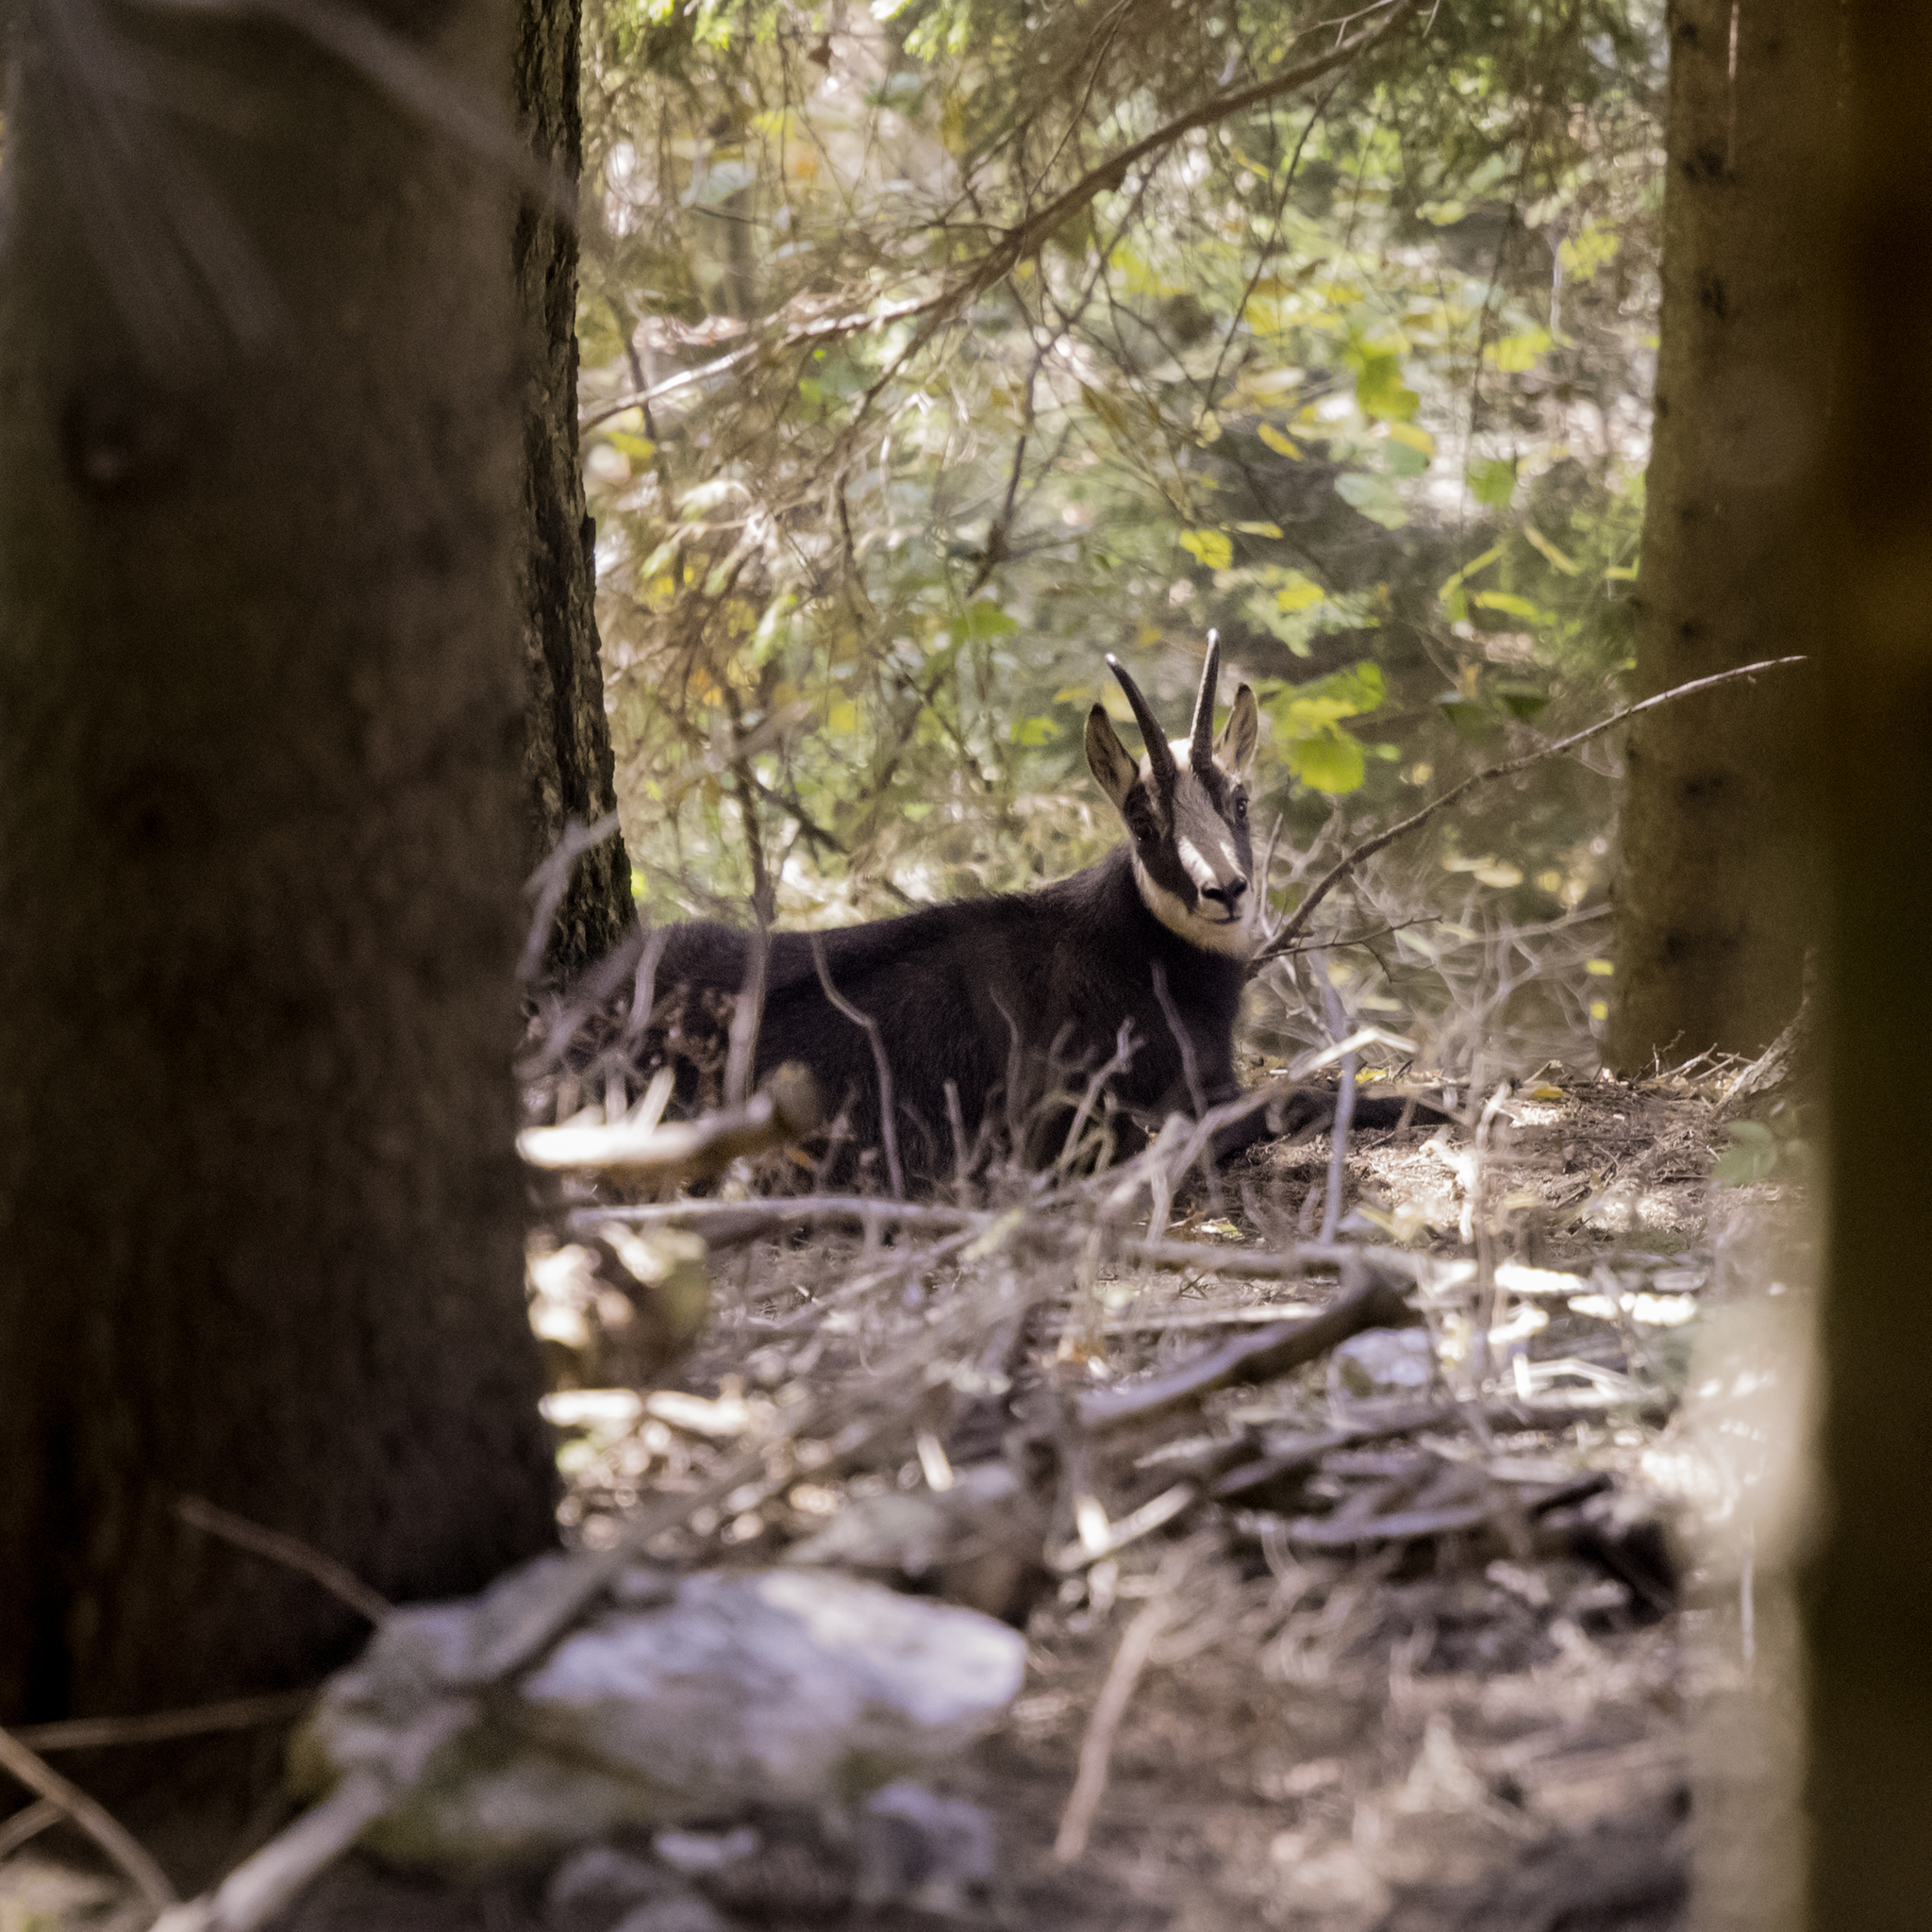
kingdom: Animalia
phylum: Chordata
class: Mammalia
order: Artiodactyla
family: Bovidae
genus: Rupicapra
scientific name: Rupicapra rupicapra
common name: Chamois
